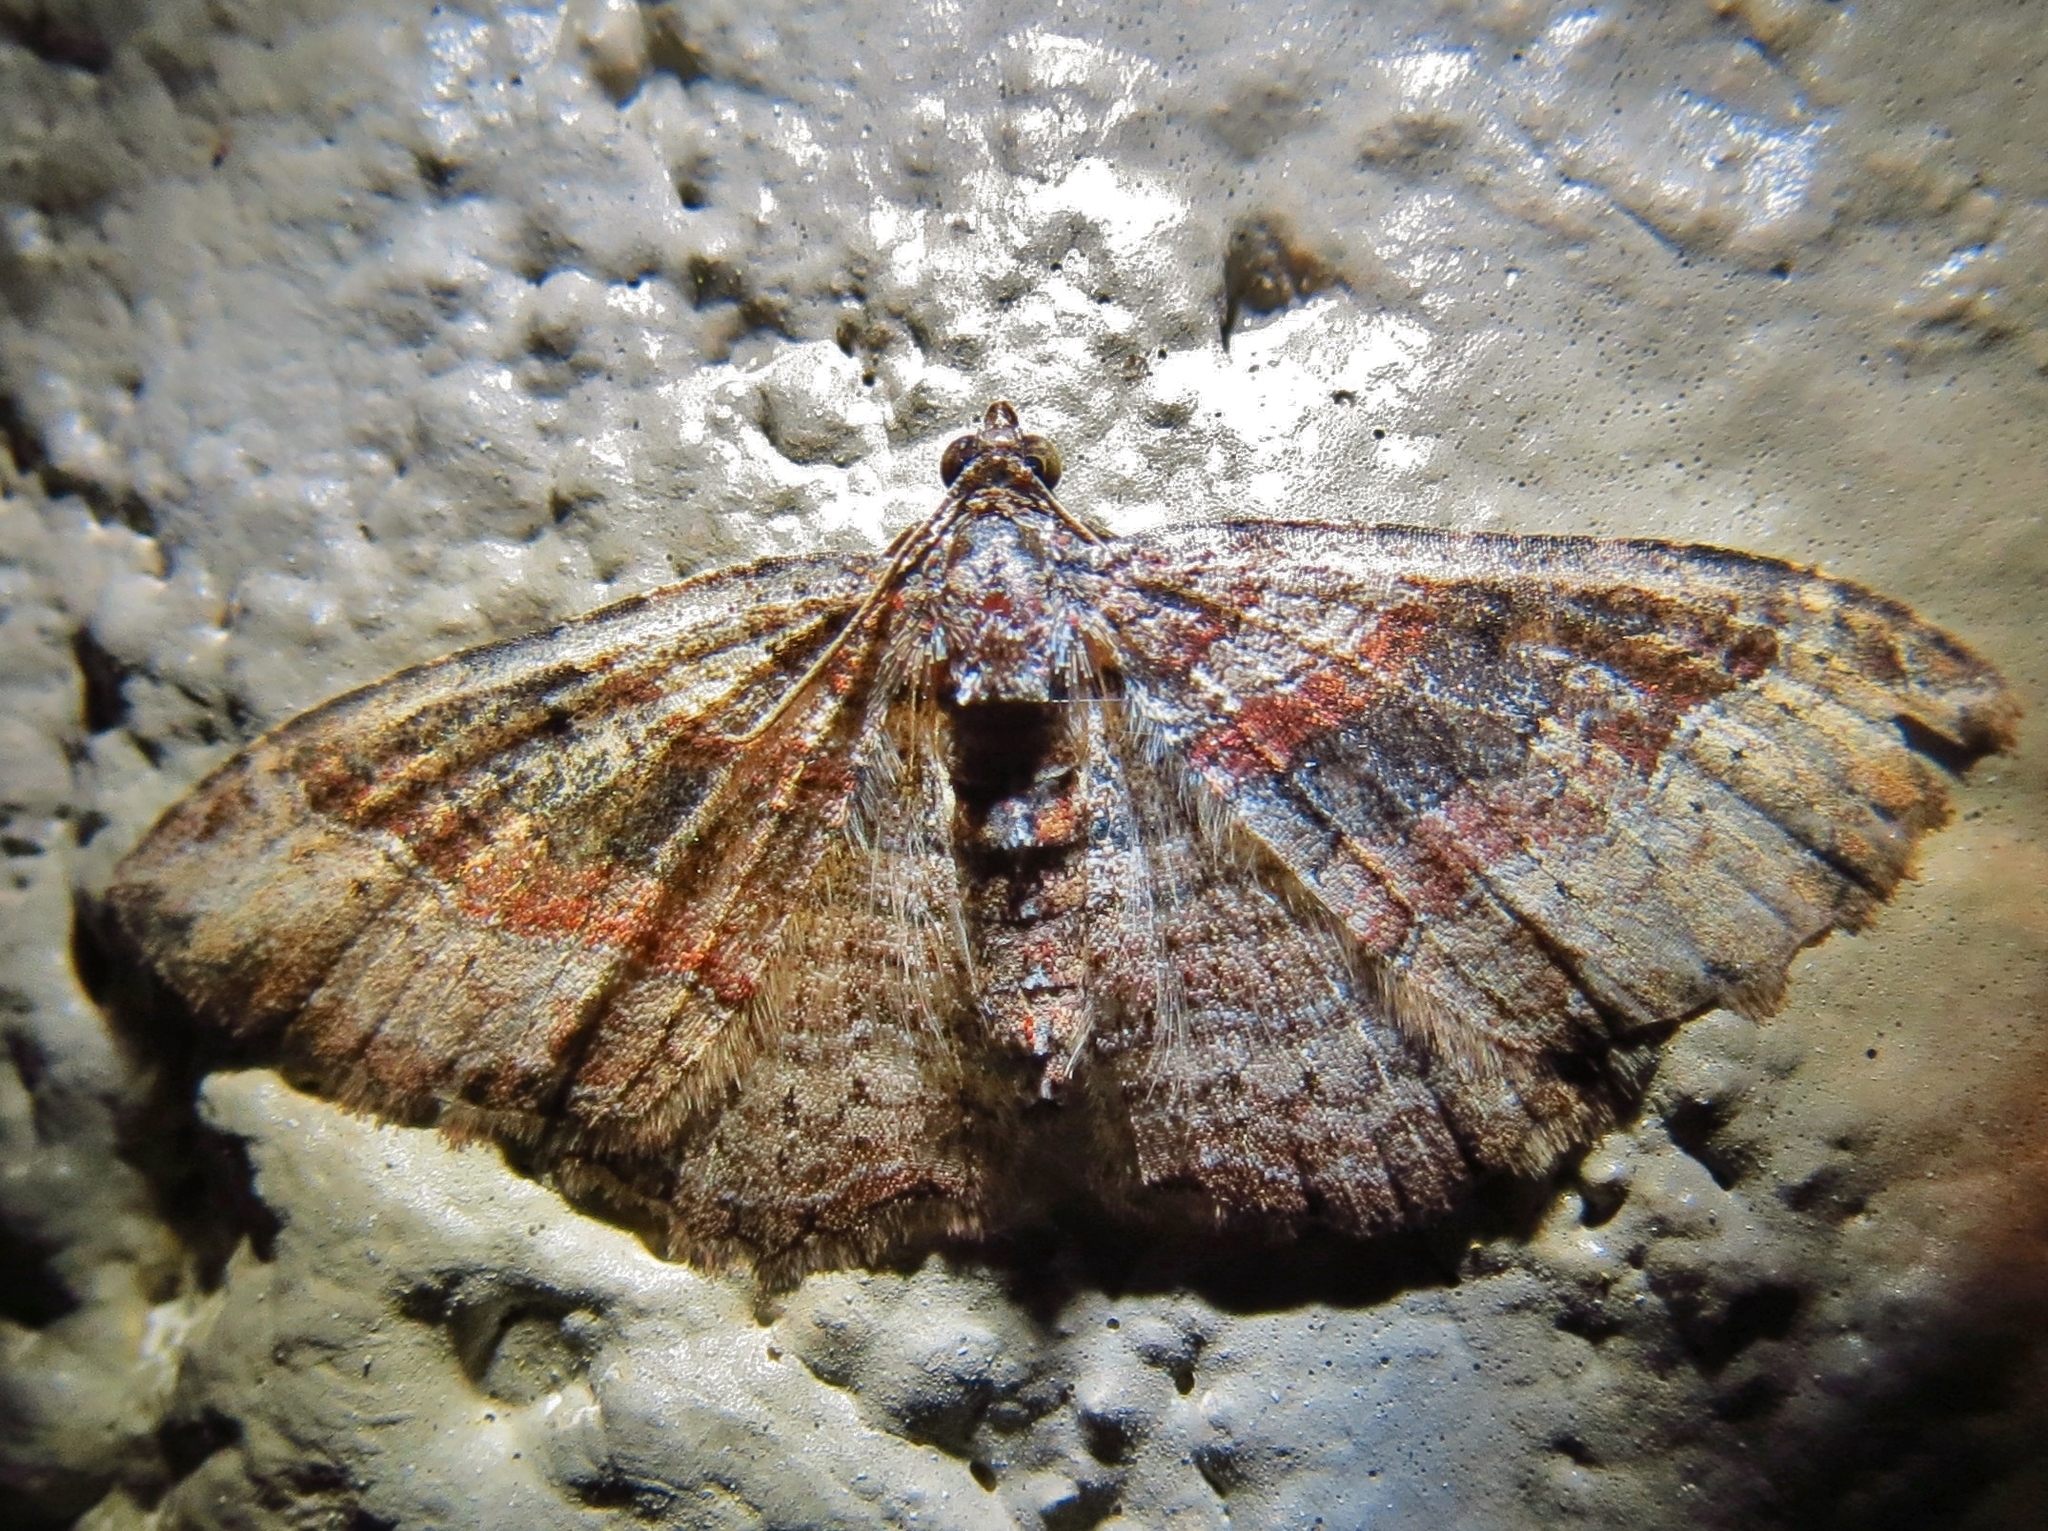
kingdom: Animalia
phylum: Arthropoda
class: Insecta
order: Lepidoptera
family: Geometridae
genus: Costaconvexa
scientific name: Costaconvexa centrostrigaria
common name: Bent-line carpet
